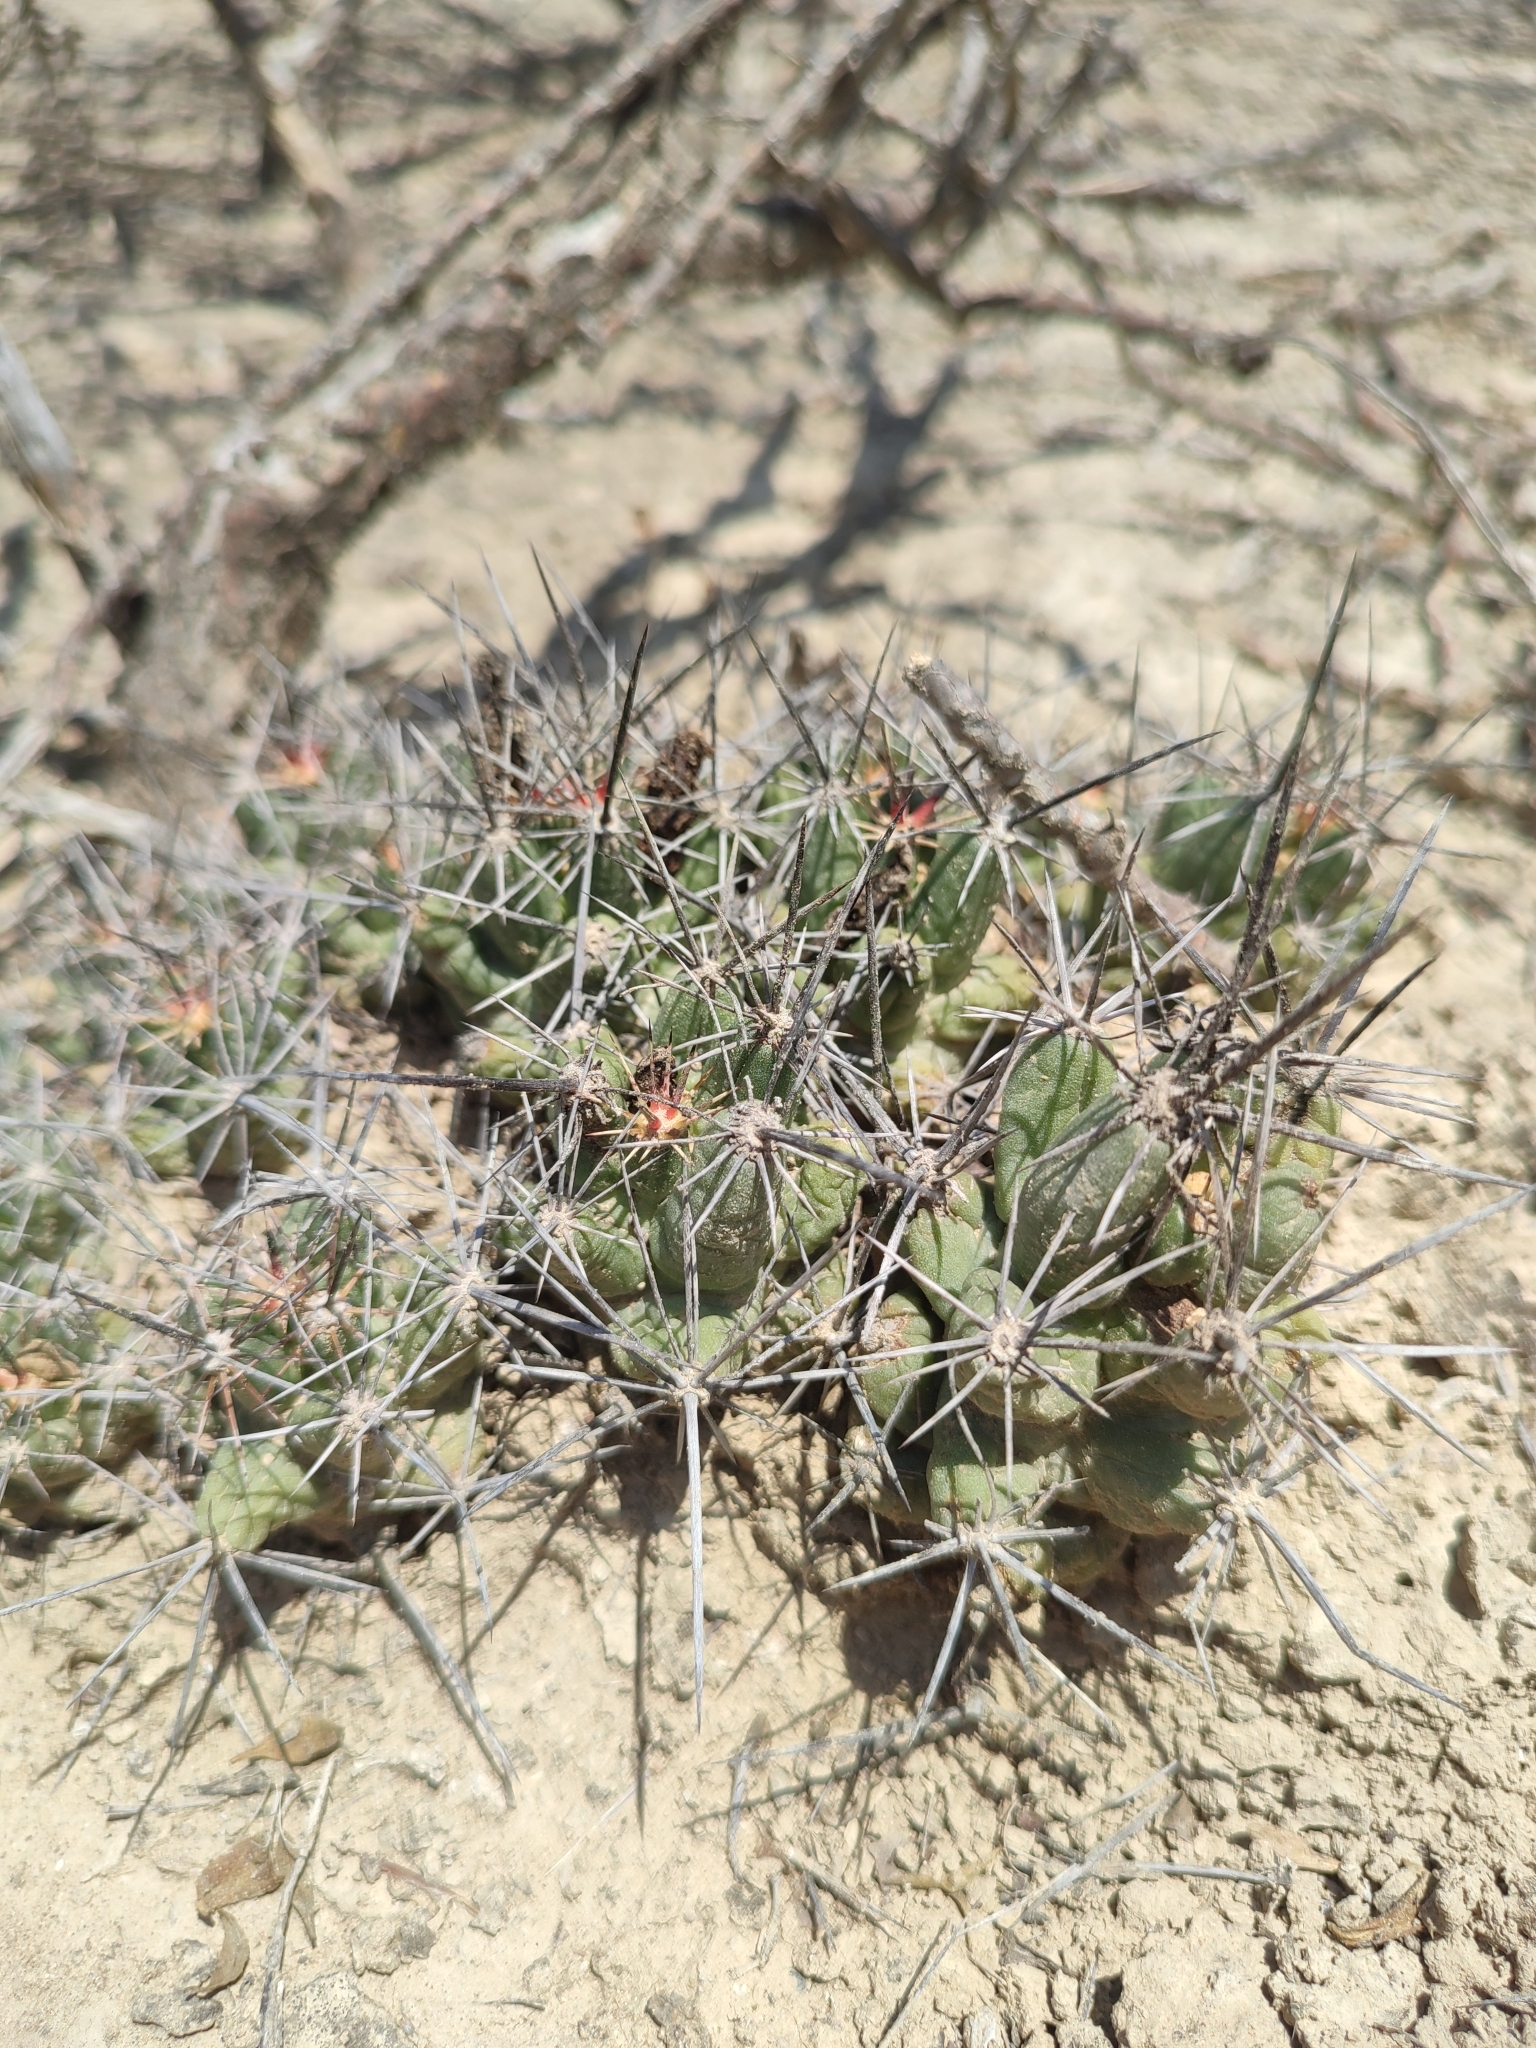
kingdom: Plantae
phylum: Tracheophyta
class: Magnoliopsida
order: Caryophyllales
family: Cactaceae
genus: Coryphantha
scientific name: Coryphantha macromeris
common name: Nipple beehive cactus
